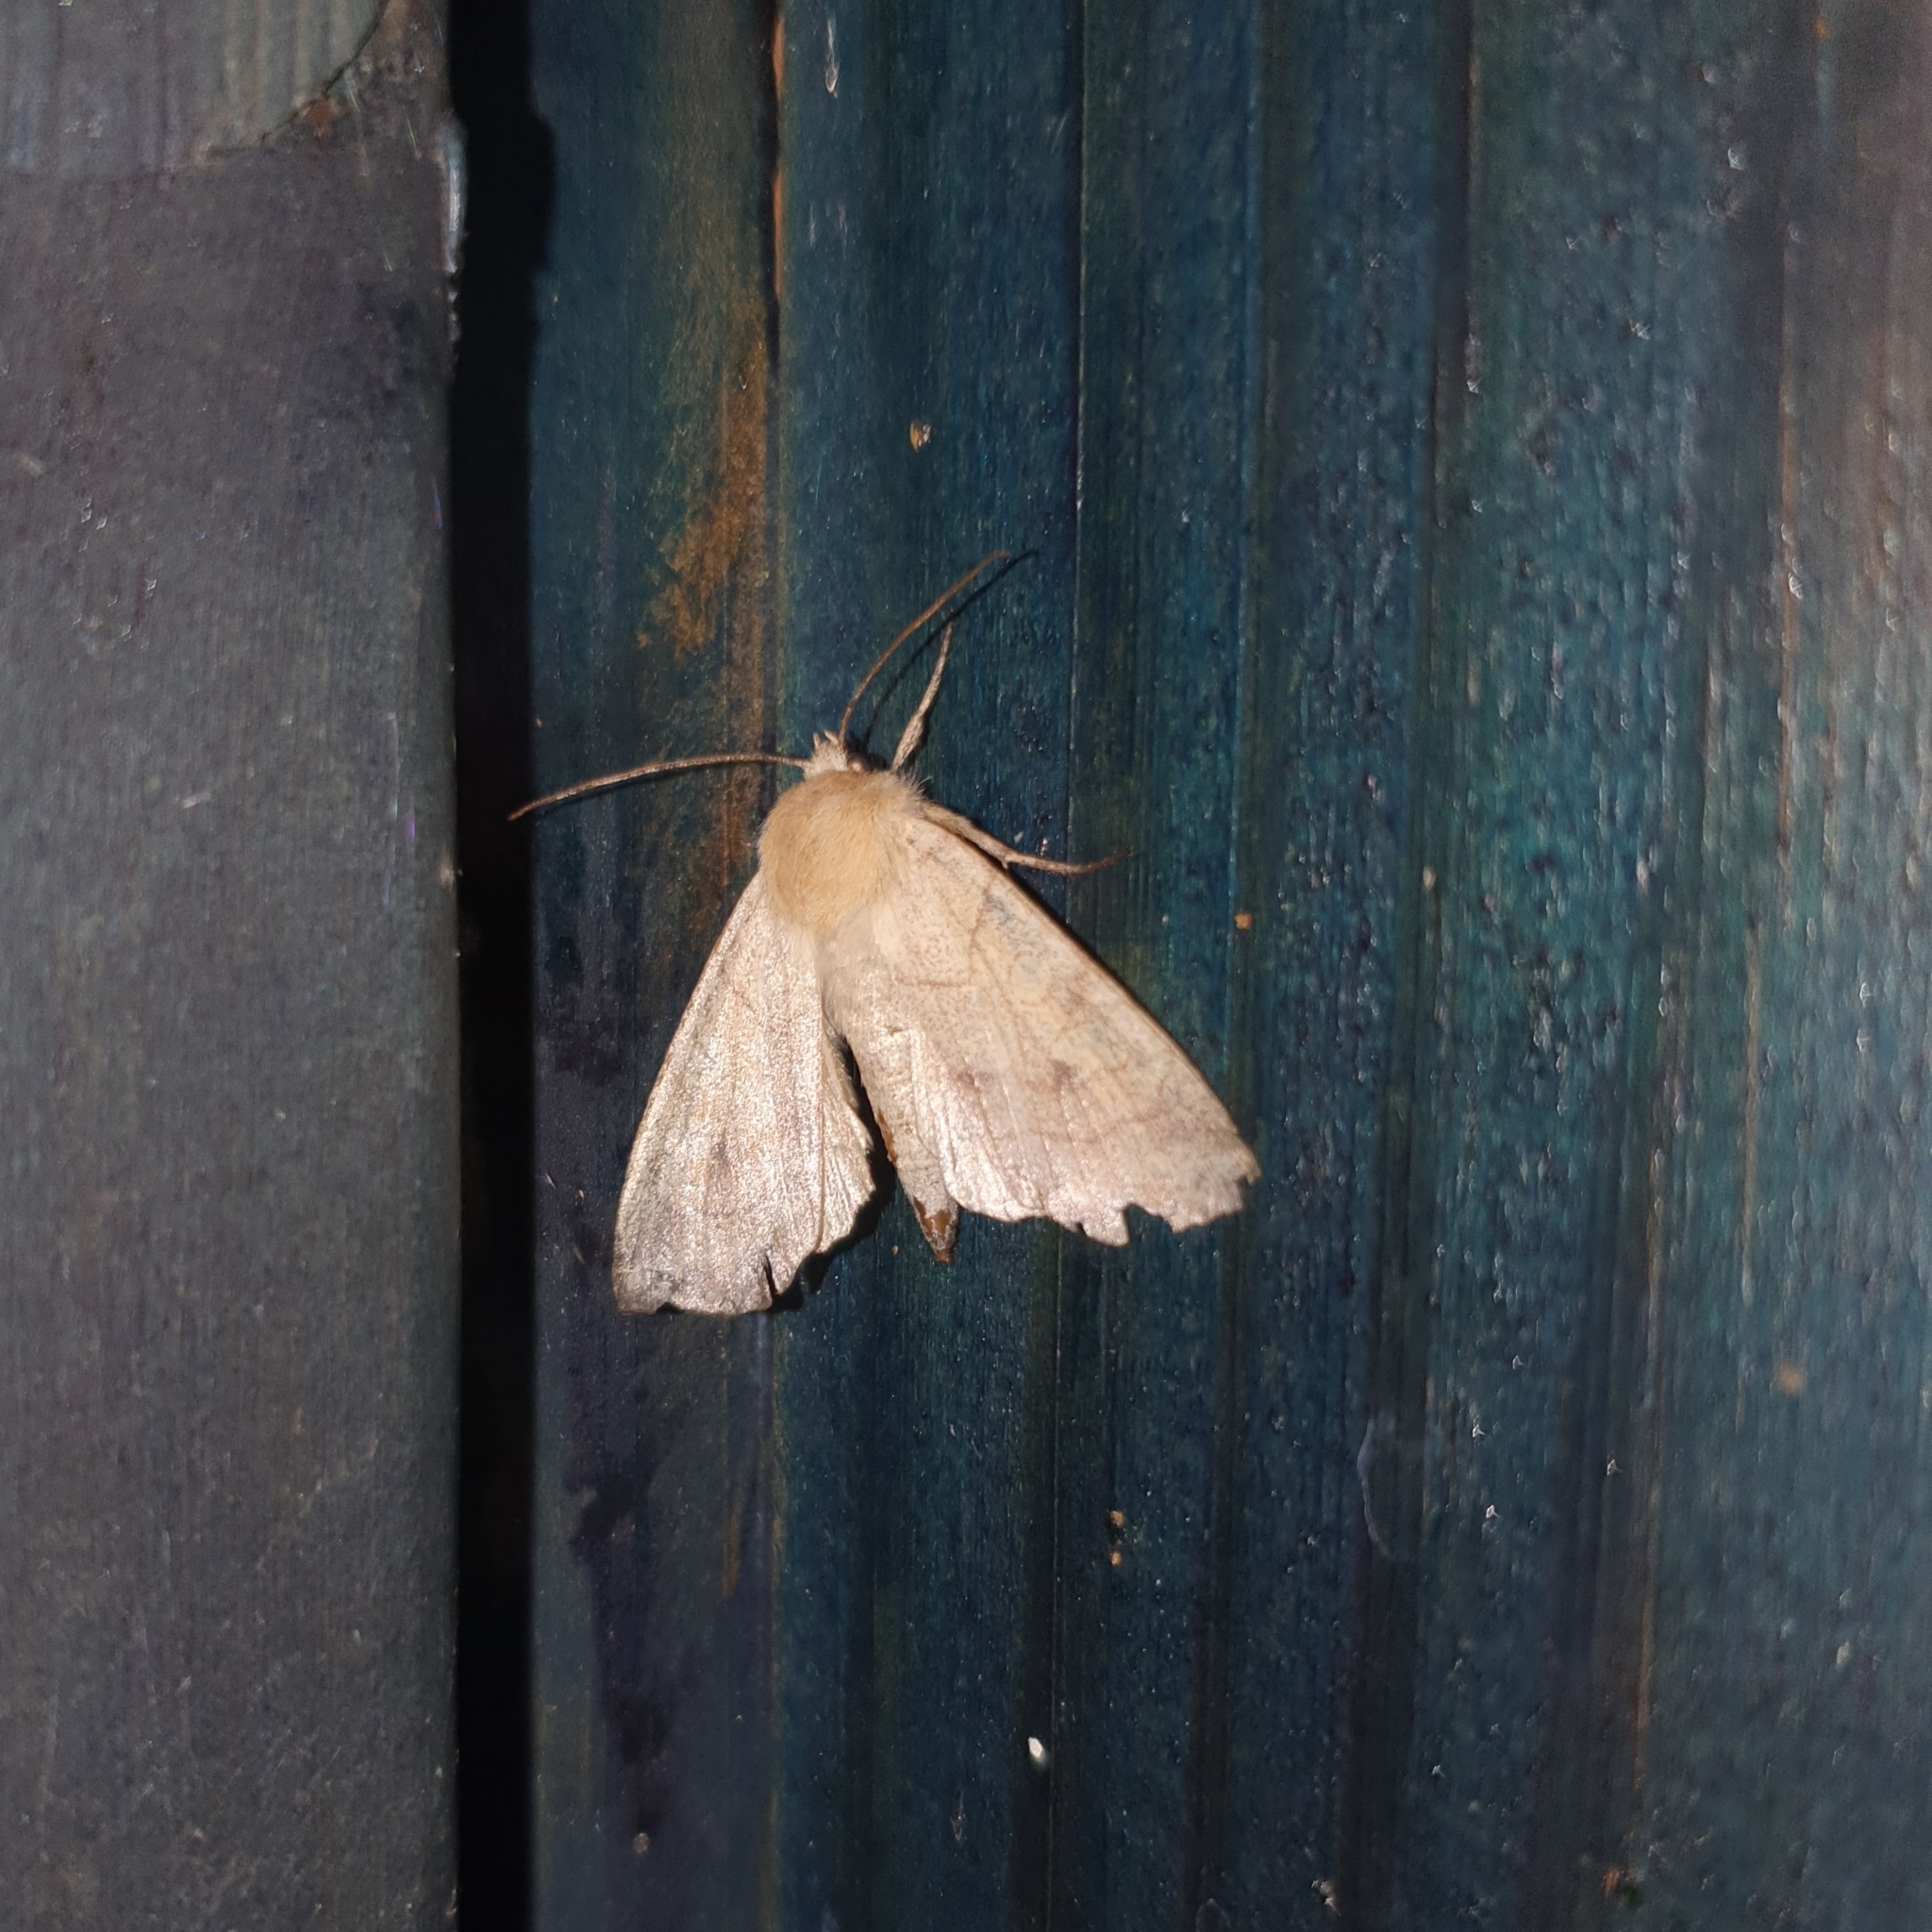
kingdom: Animalia
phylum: Arthropoda
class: Insecta
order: Lepidoptera
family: Noctuidae
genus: Enargia
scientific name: Enargia paleacea
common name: Angle-striped sallow
